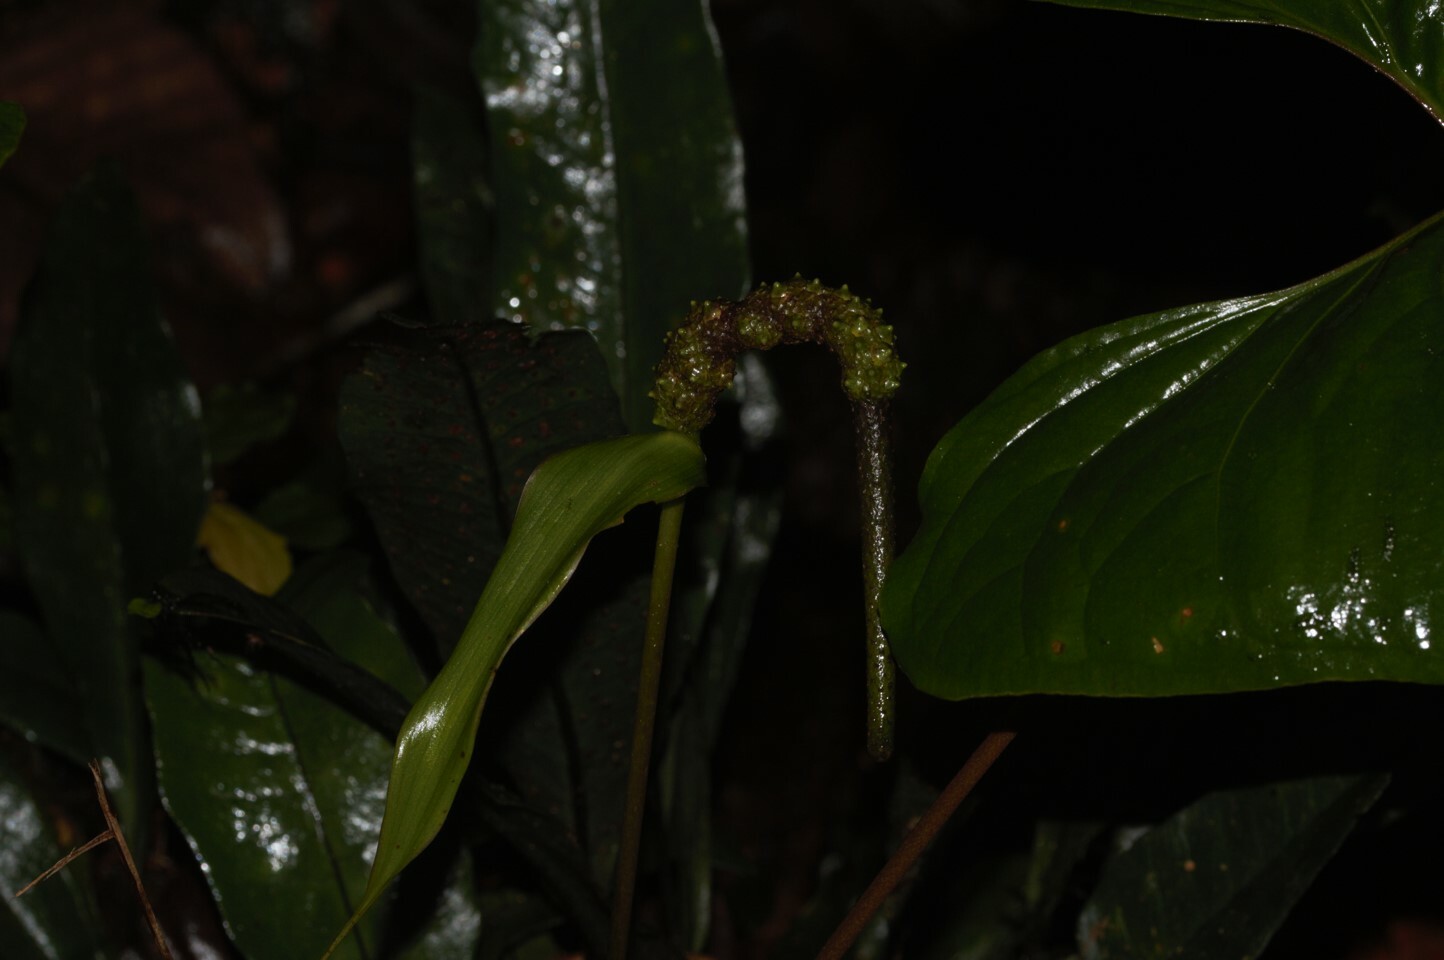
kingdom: Plantae
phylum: Tracheophyta
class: Liliopsida
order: Alismatales
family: Araceae
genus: Anthurium
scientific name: Anthurium sagittatum
